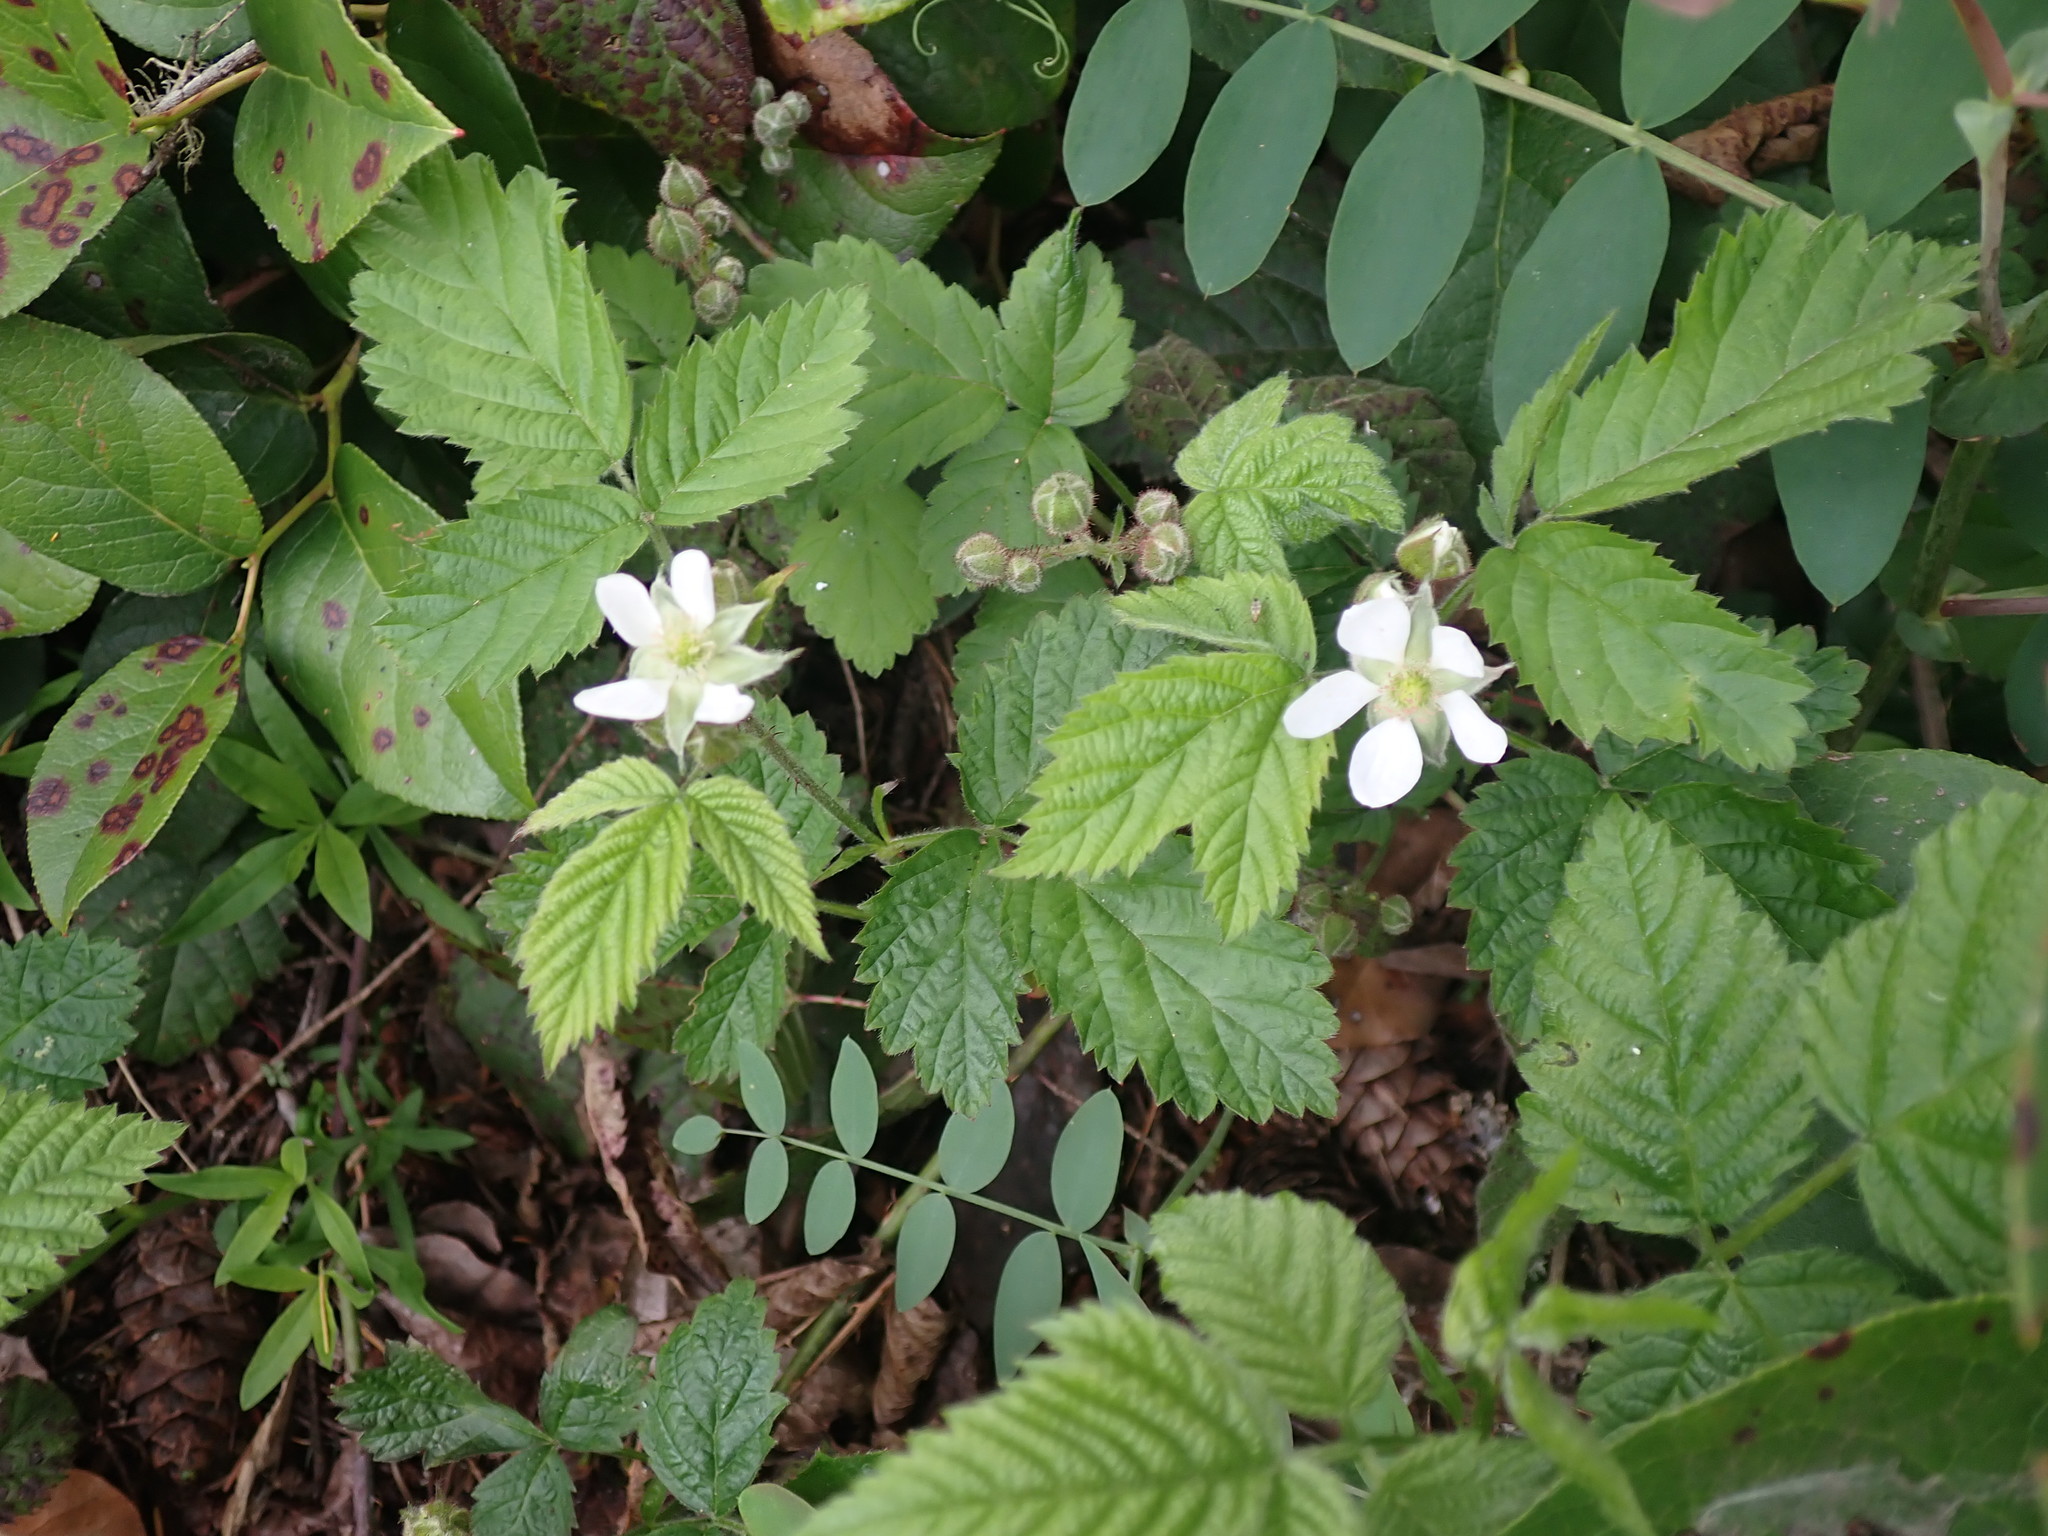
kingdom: Plantae
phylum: Tracheophyta
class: Magnoliopsida
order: Rosales
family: Rosaceae
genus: Rubus
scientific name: Rubus ursinus
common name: Pacific blackberry
